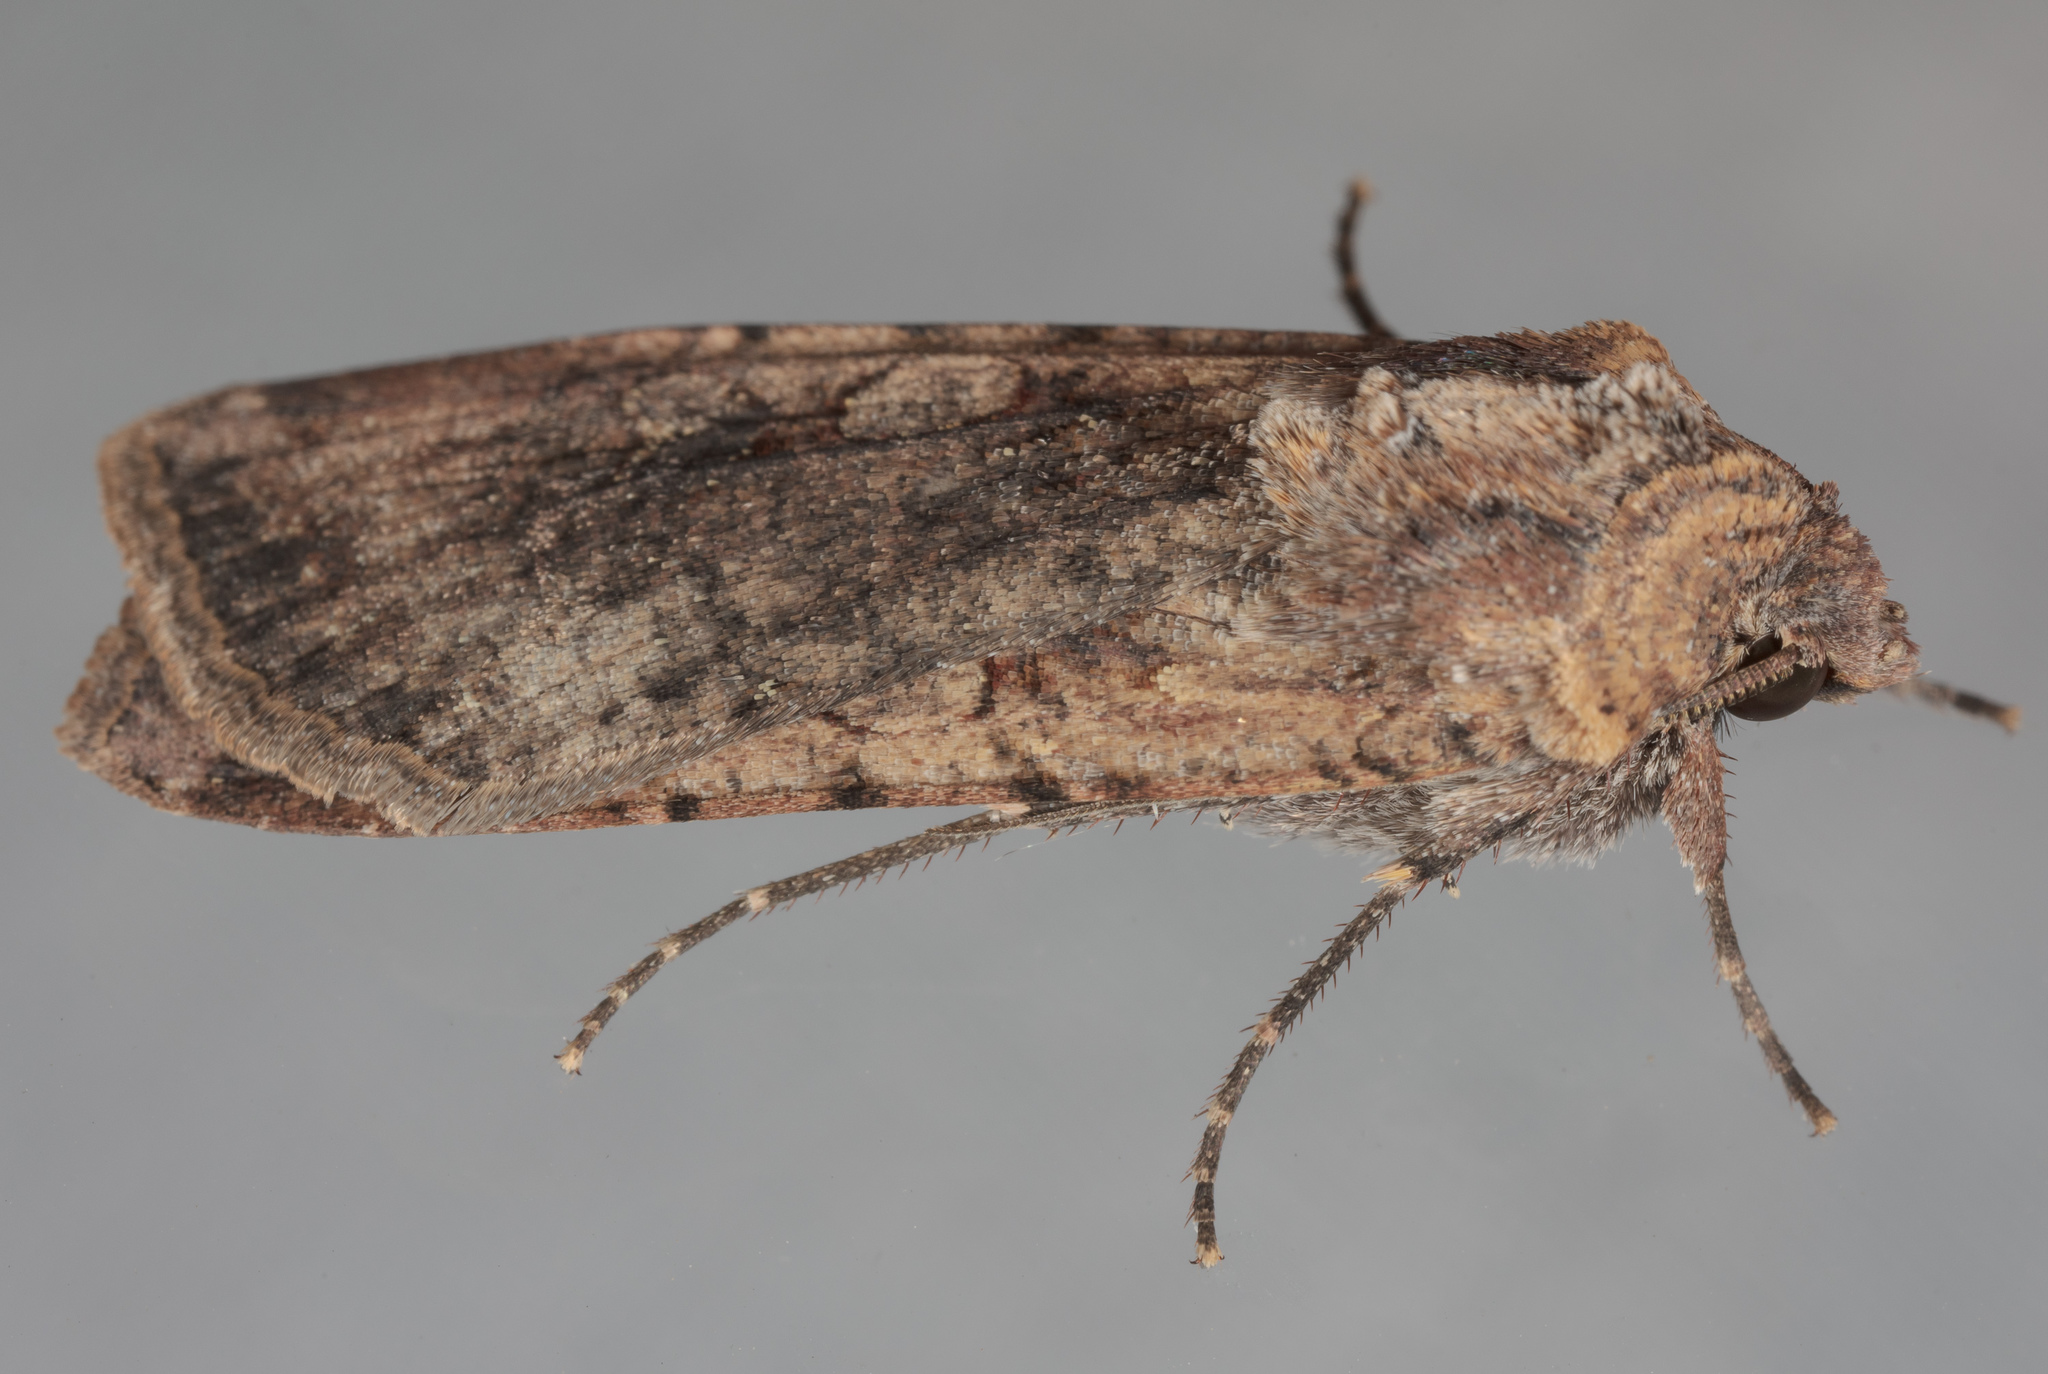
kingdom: Animalia
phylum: Arthropoda
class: Insecta
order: Lepidoptera
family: Noctuidae
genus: Peridroma
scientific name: Peridroma saucia
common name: Pearly underwing
